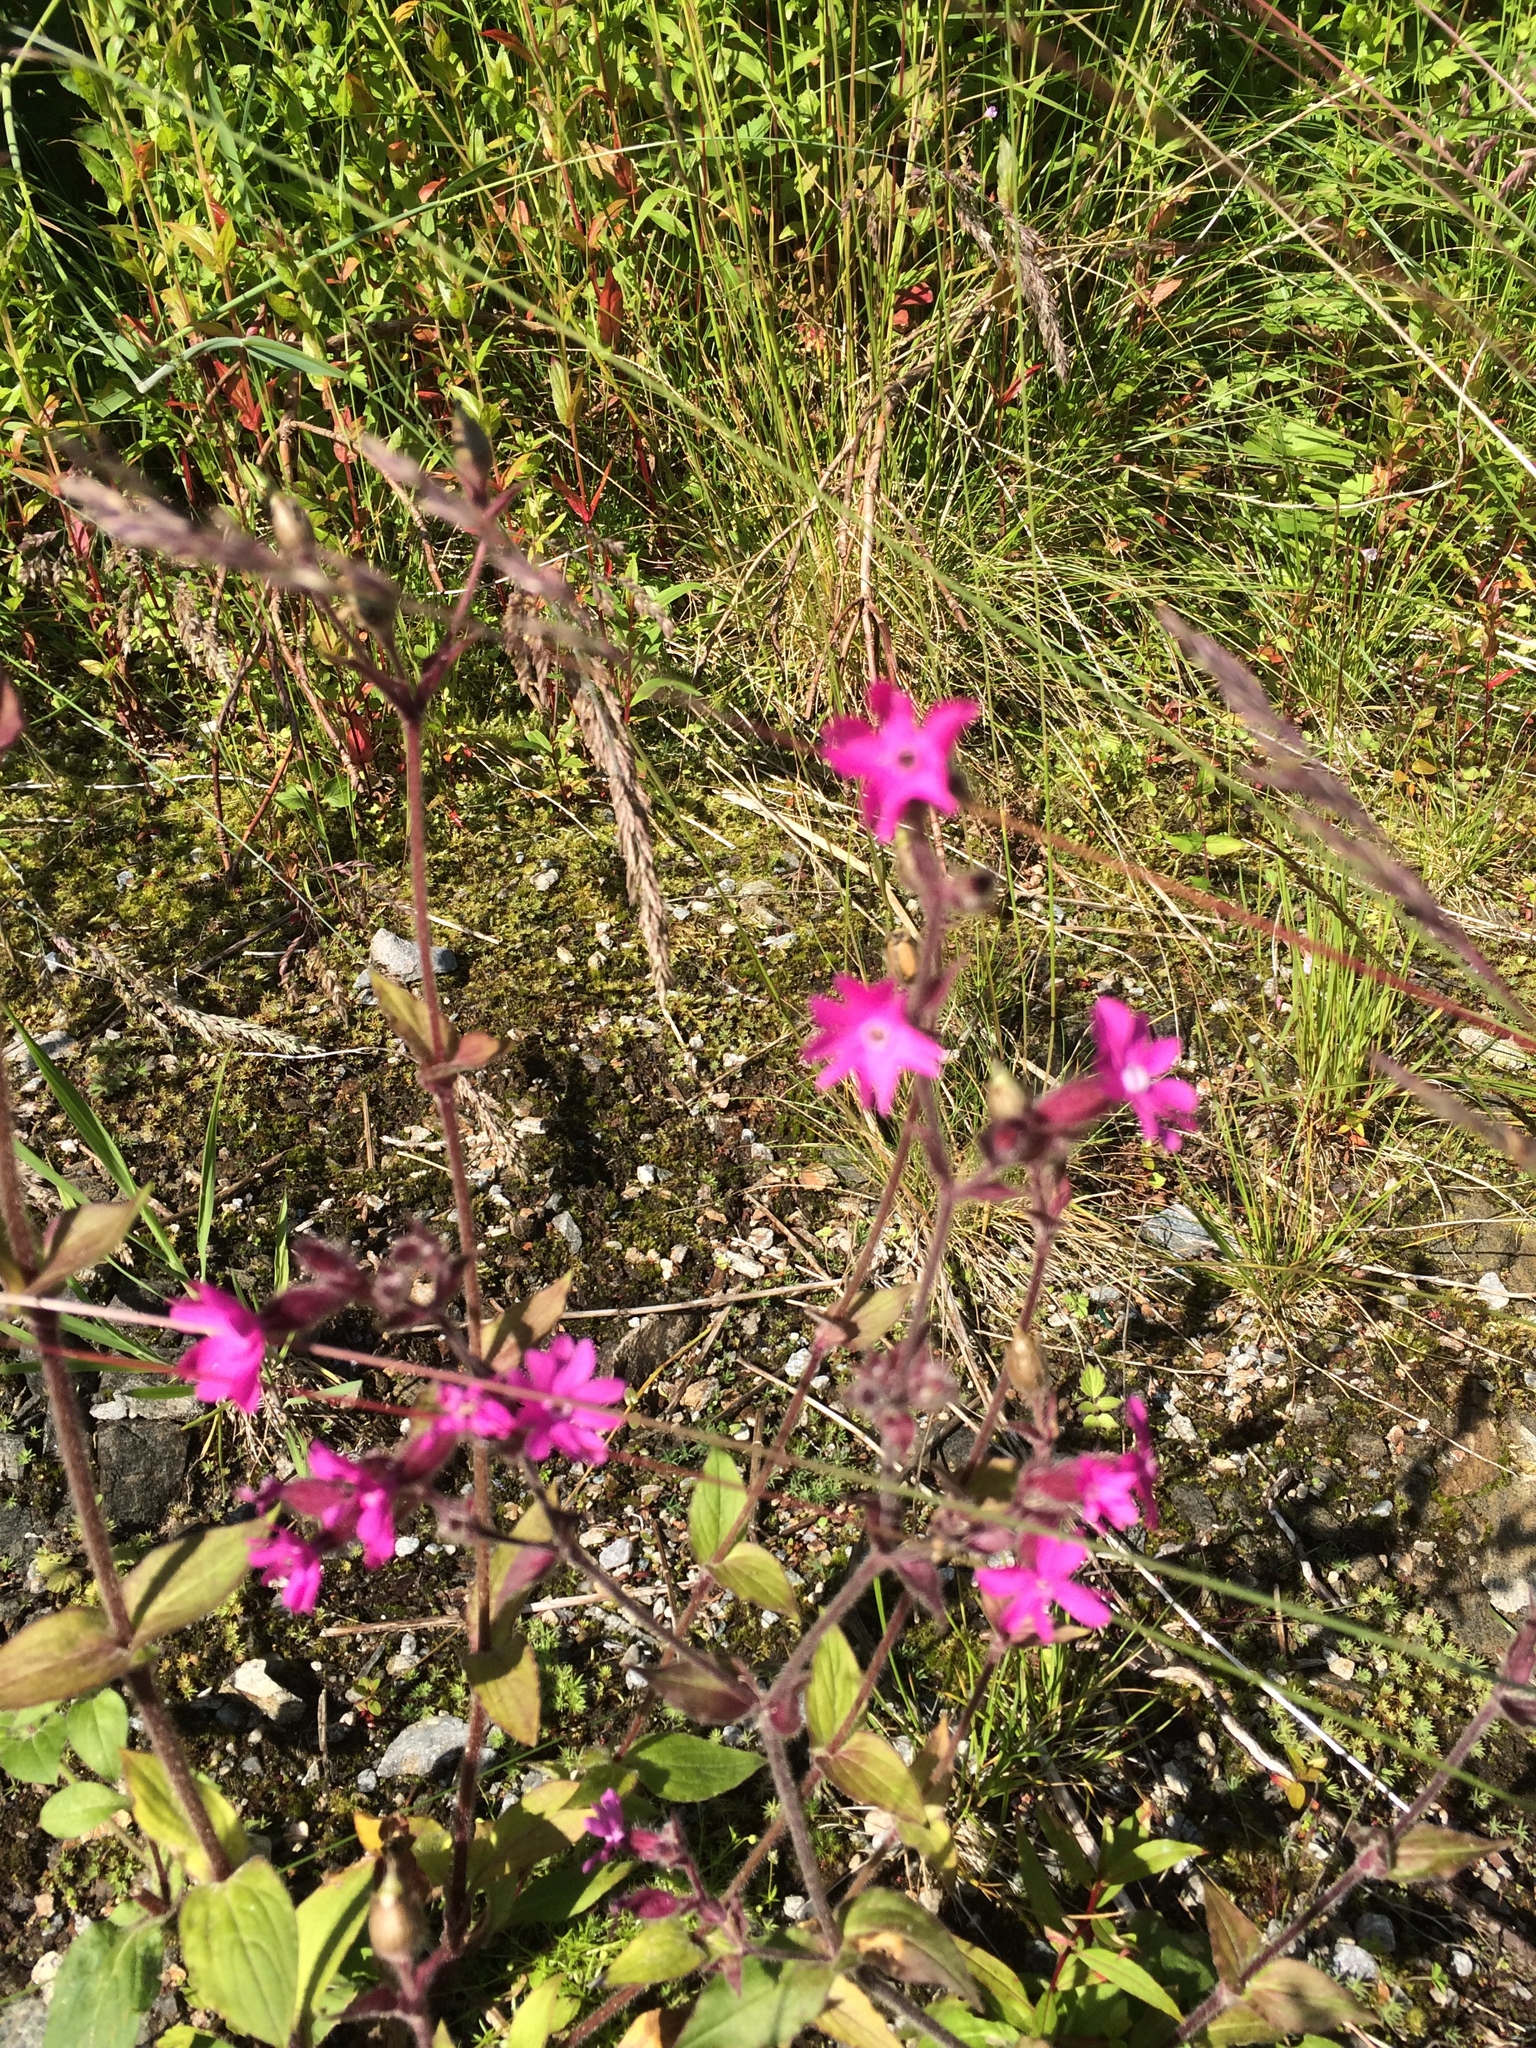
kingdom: Plantae
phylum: Tracheophyta
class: Magnoliopsida
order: Caryophyllales
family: Caryophyllaceae
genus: Silene
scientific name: Silene dioica
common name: Red campion
